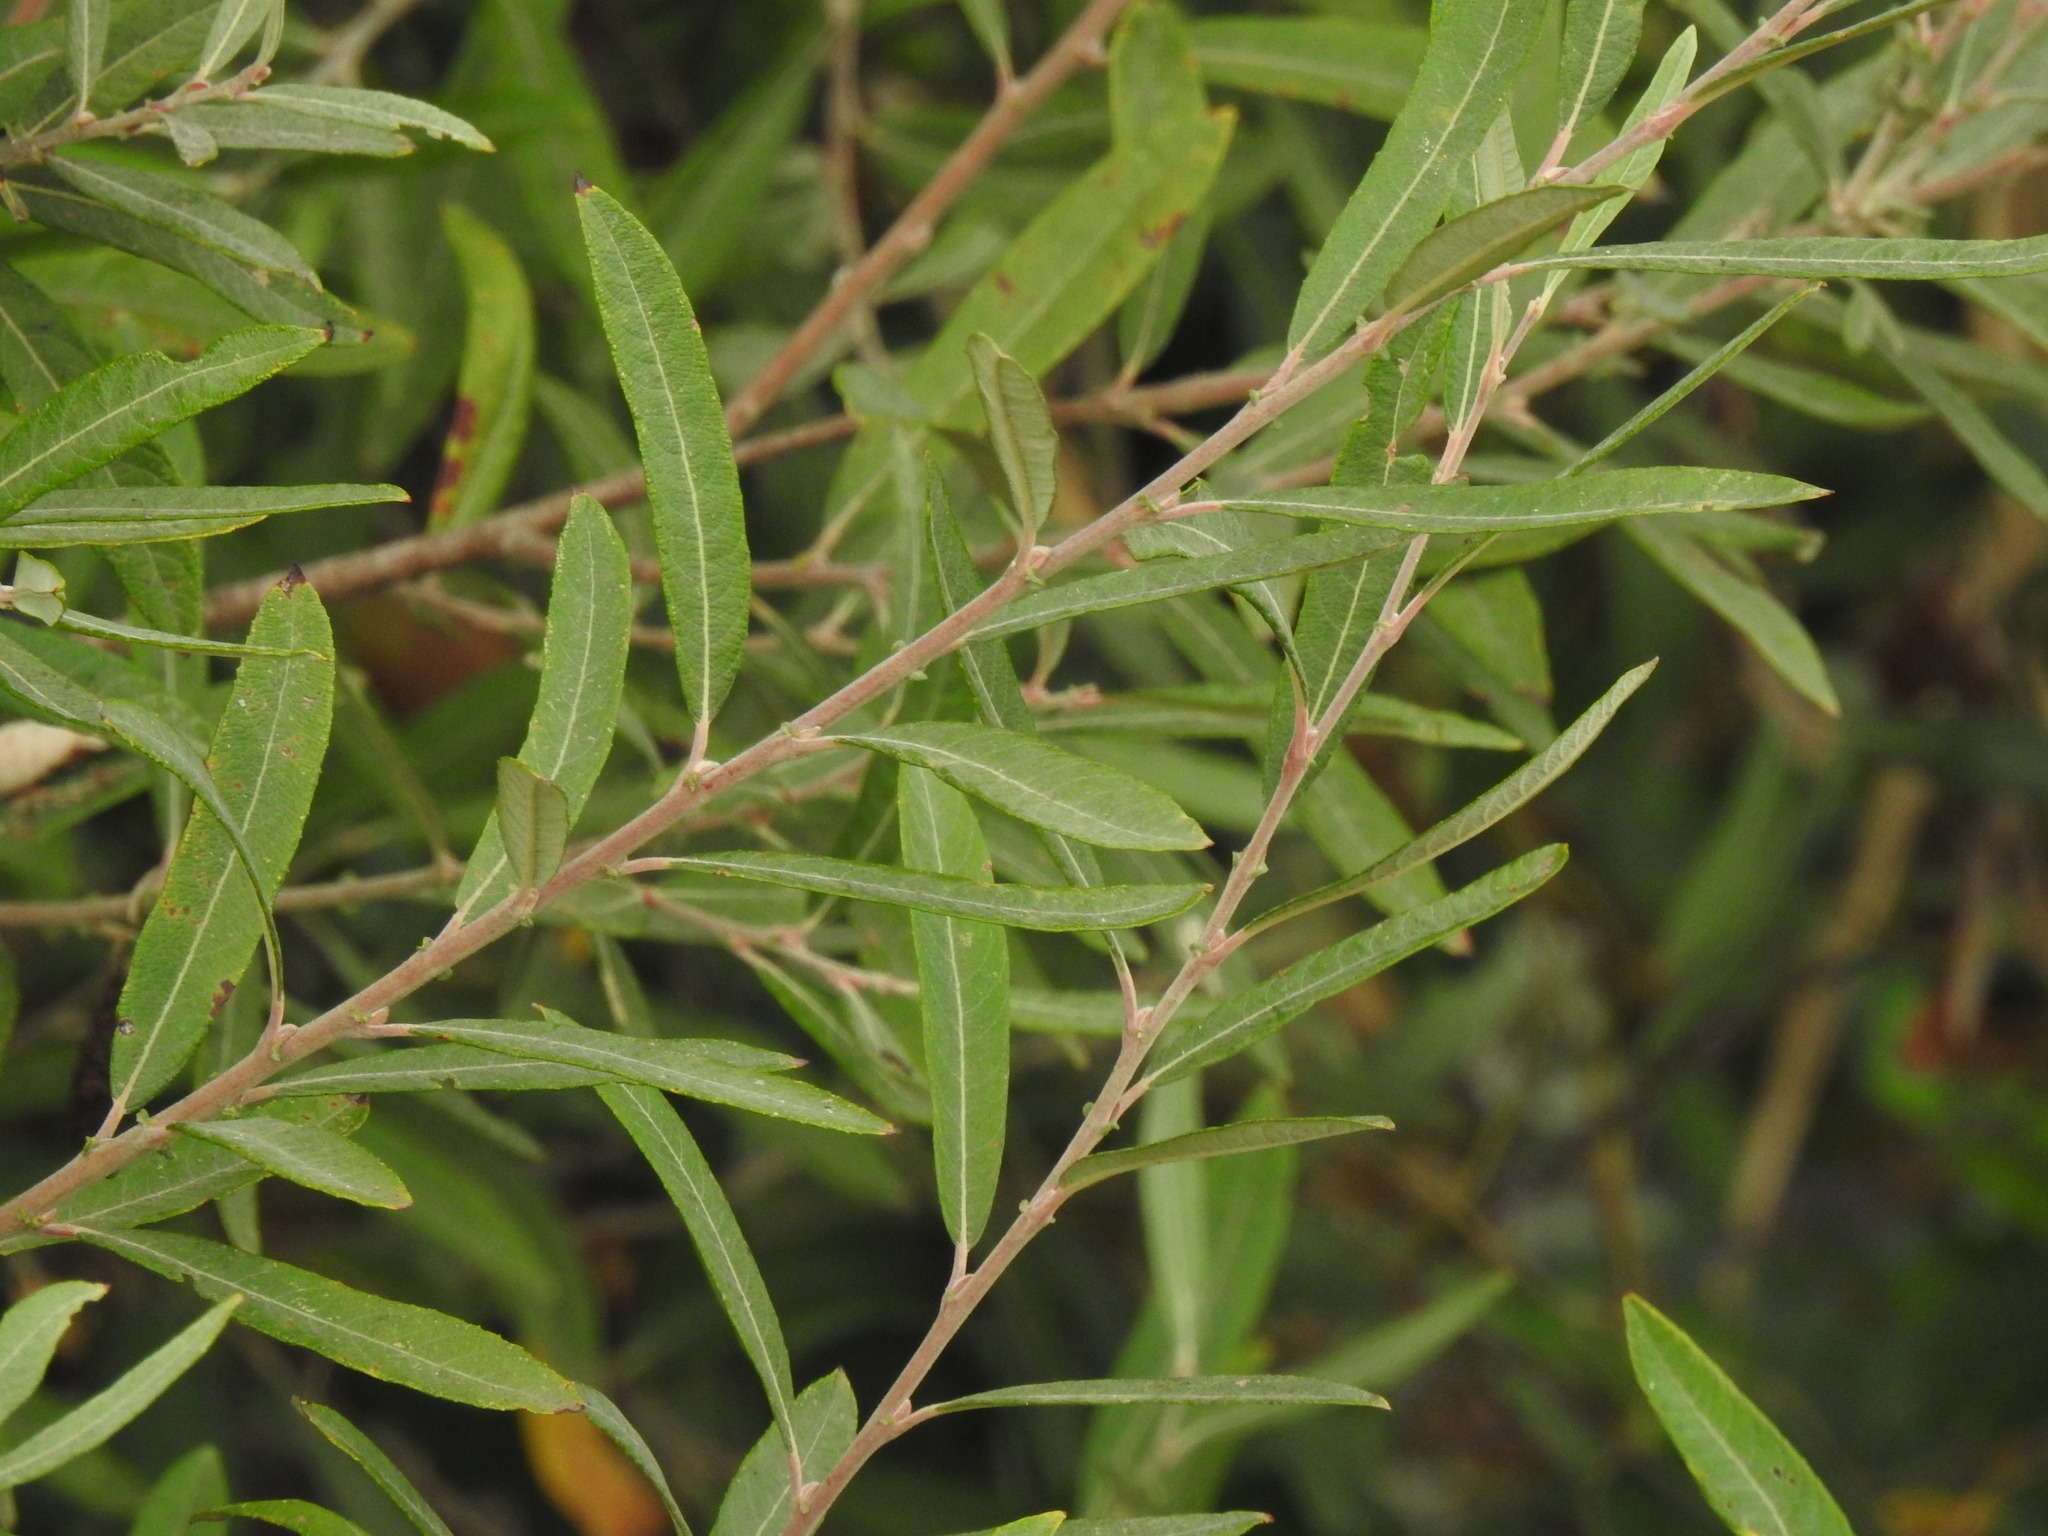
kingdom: Plantae
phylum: Tracheophyta
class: Magnoliopsida
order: Malpighiales
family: Salicaceae
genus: Salix
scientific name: Salix salviifolia
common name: Salvia-leaf willow
